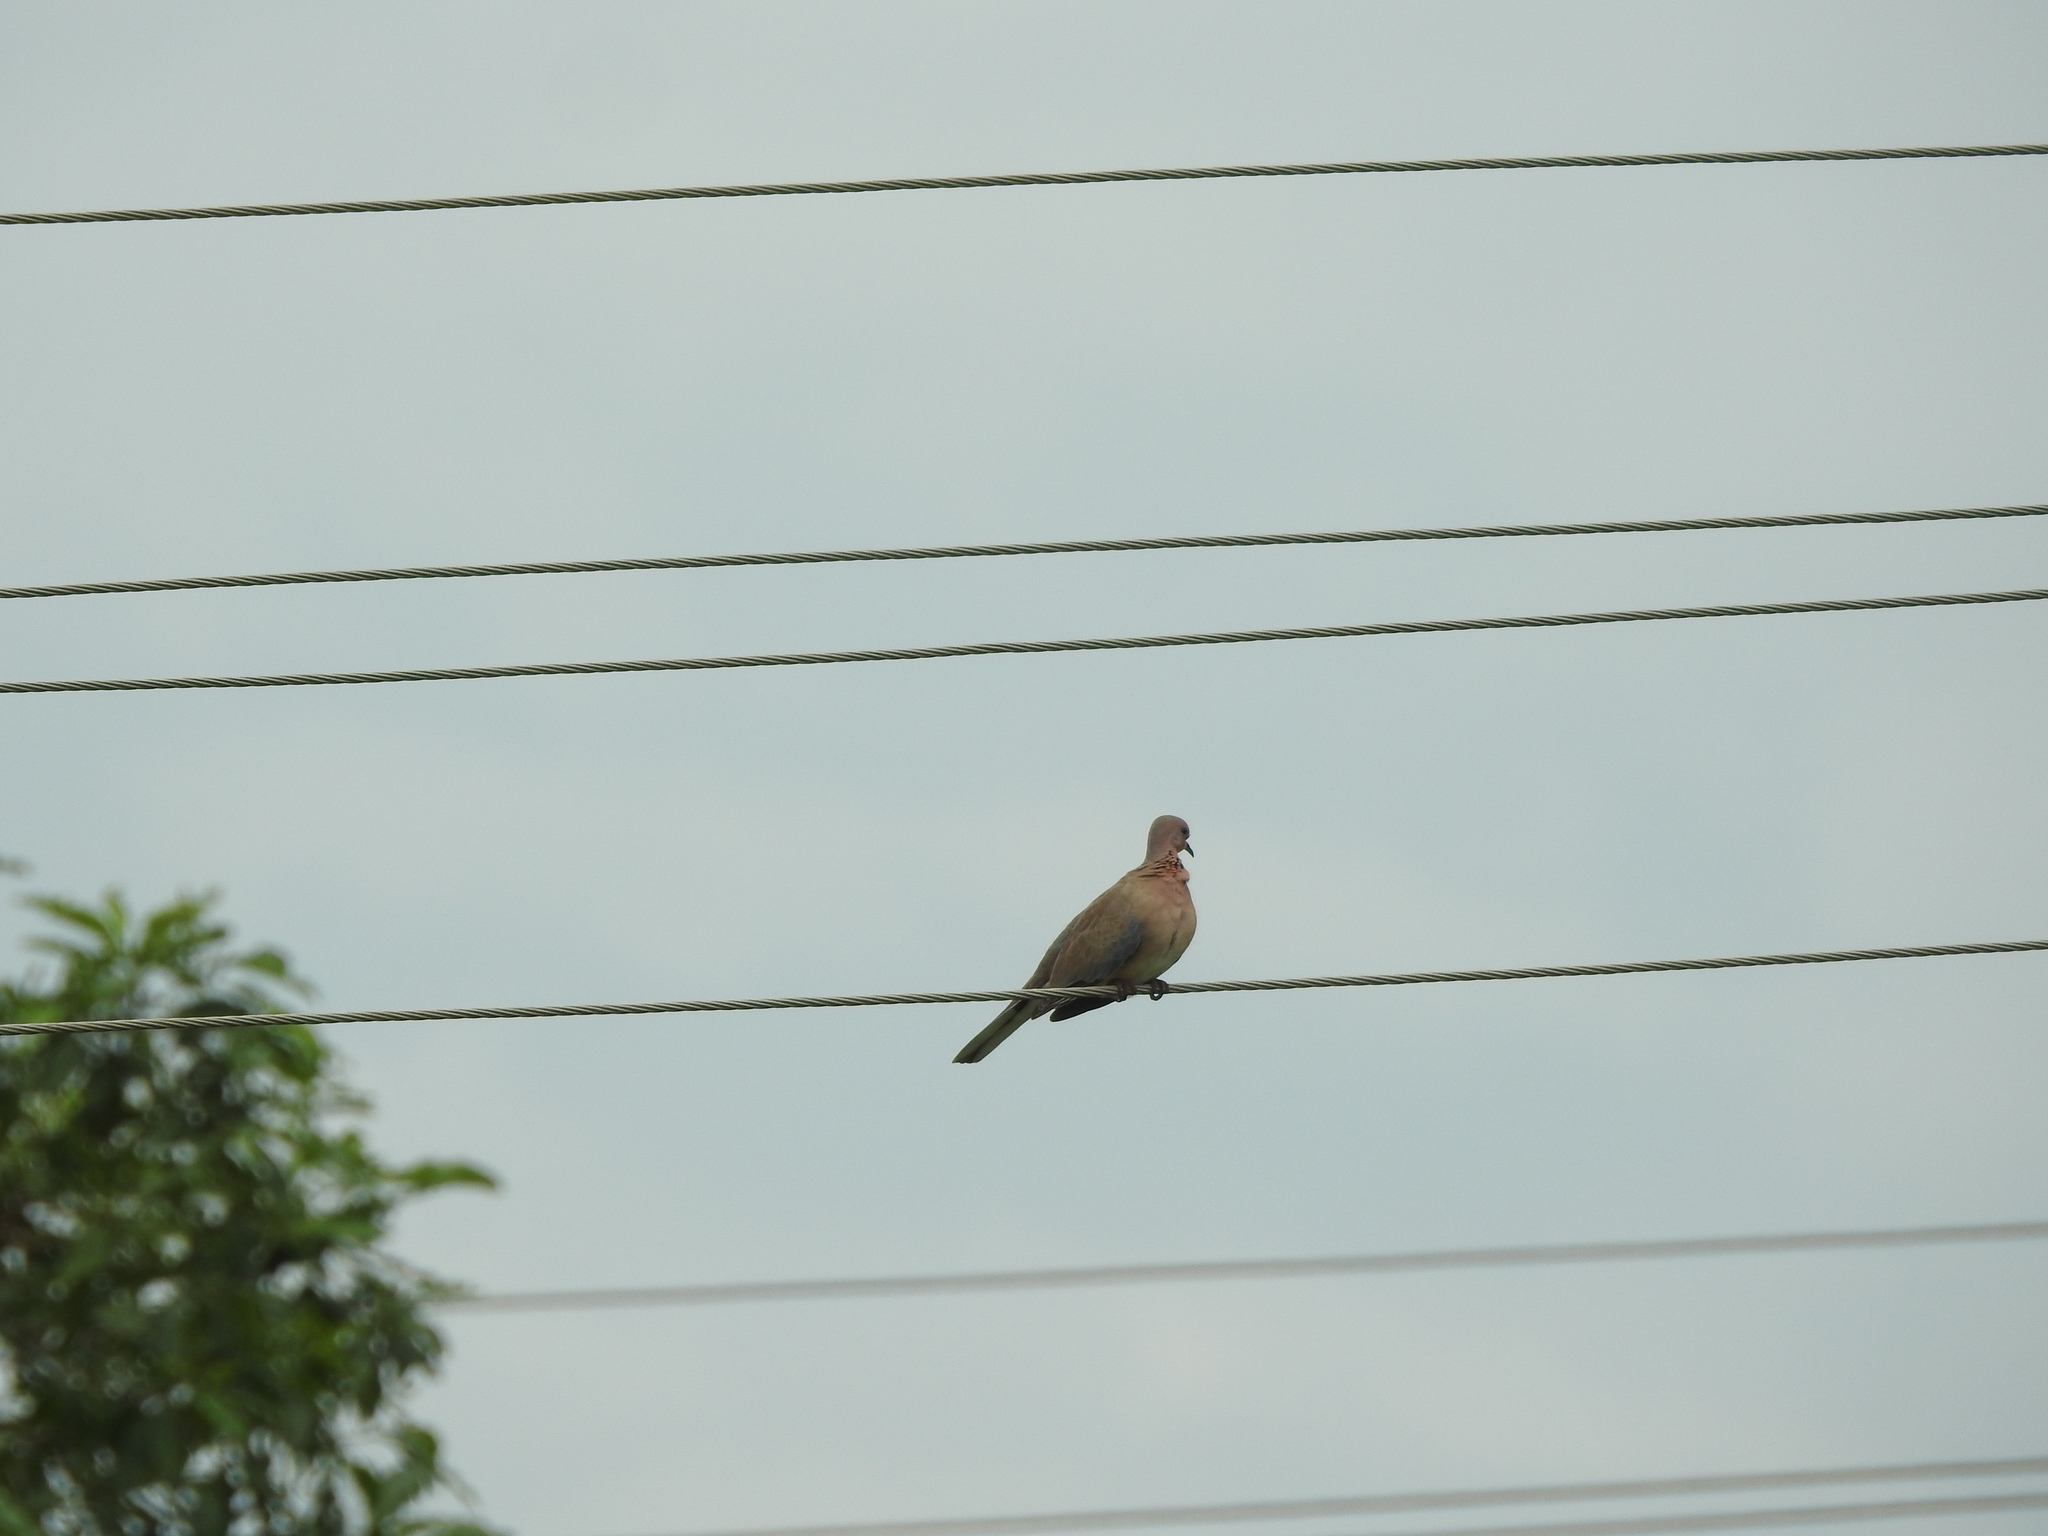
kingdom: Animalia
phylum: Chordata
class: Aves
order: Columbiformes
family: Columbidae
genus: Spilopelia
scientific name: Spilopelia senegalensis
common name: Laughing dove
